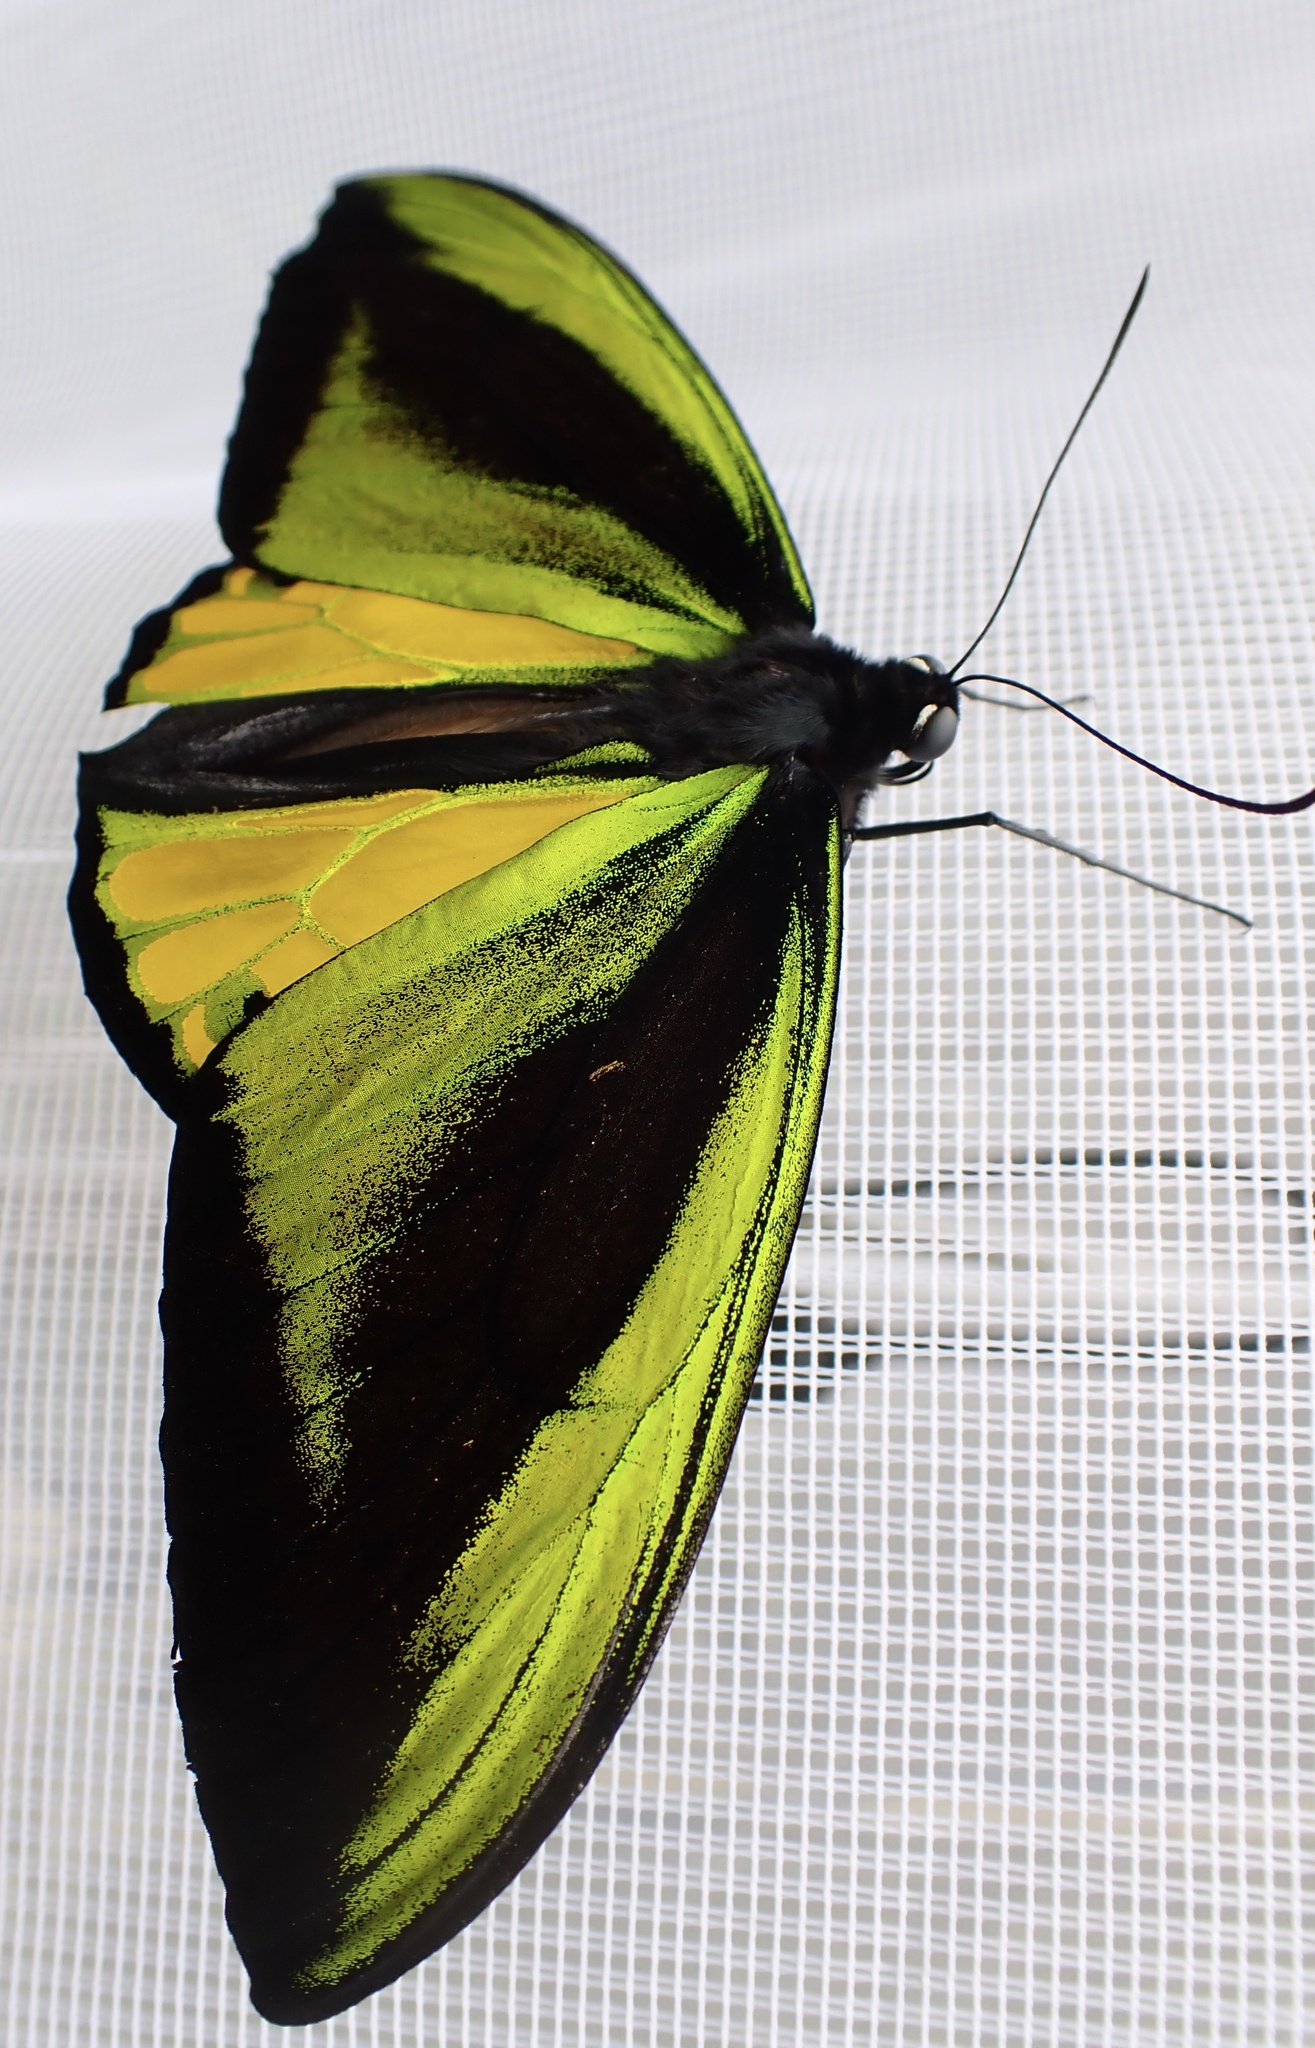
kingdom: Animalia
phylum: Arthropoda
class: Insecta
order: Lepidoptera
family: Papilionidae
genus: Ornithoptera
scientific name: Ornithoptera goliath
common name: Goliath birdwing
